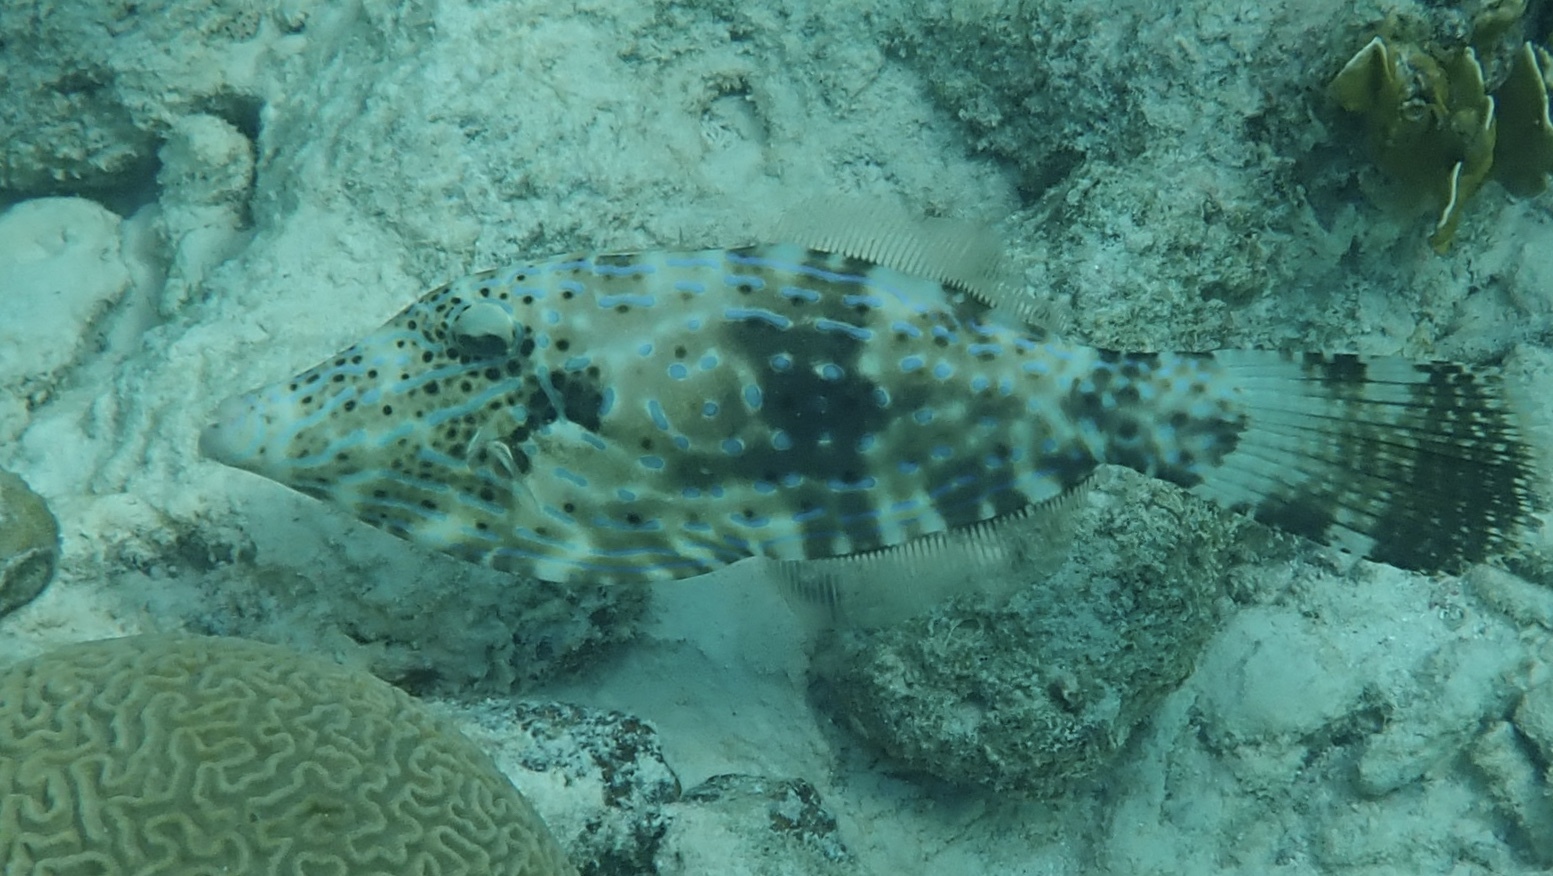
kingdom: Animalia
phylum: Chordata
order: Tetraodontiformes
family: Monacanthidae
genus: Aluterus
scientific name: Aluterus scriptus
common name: Scribbled leatherjacket filefish
